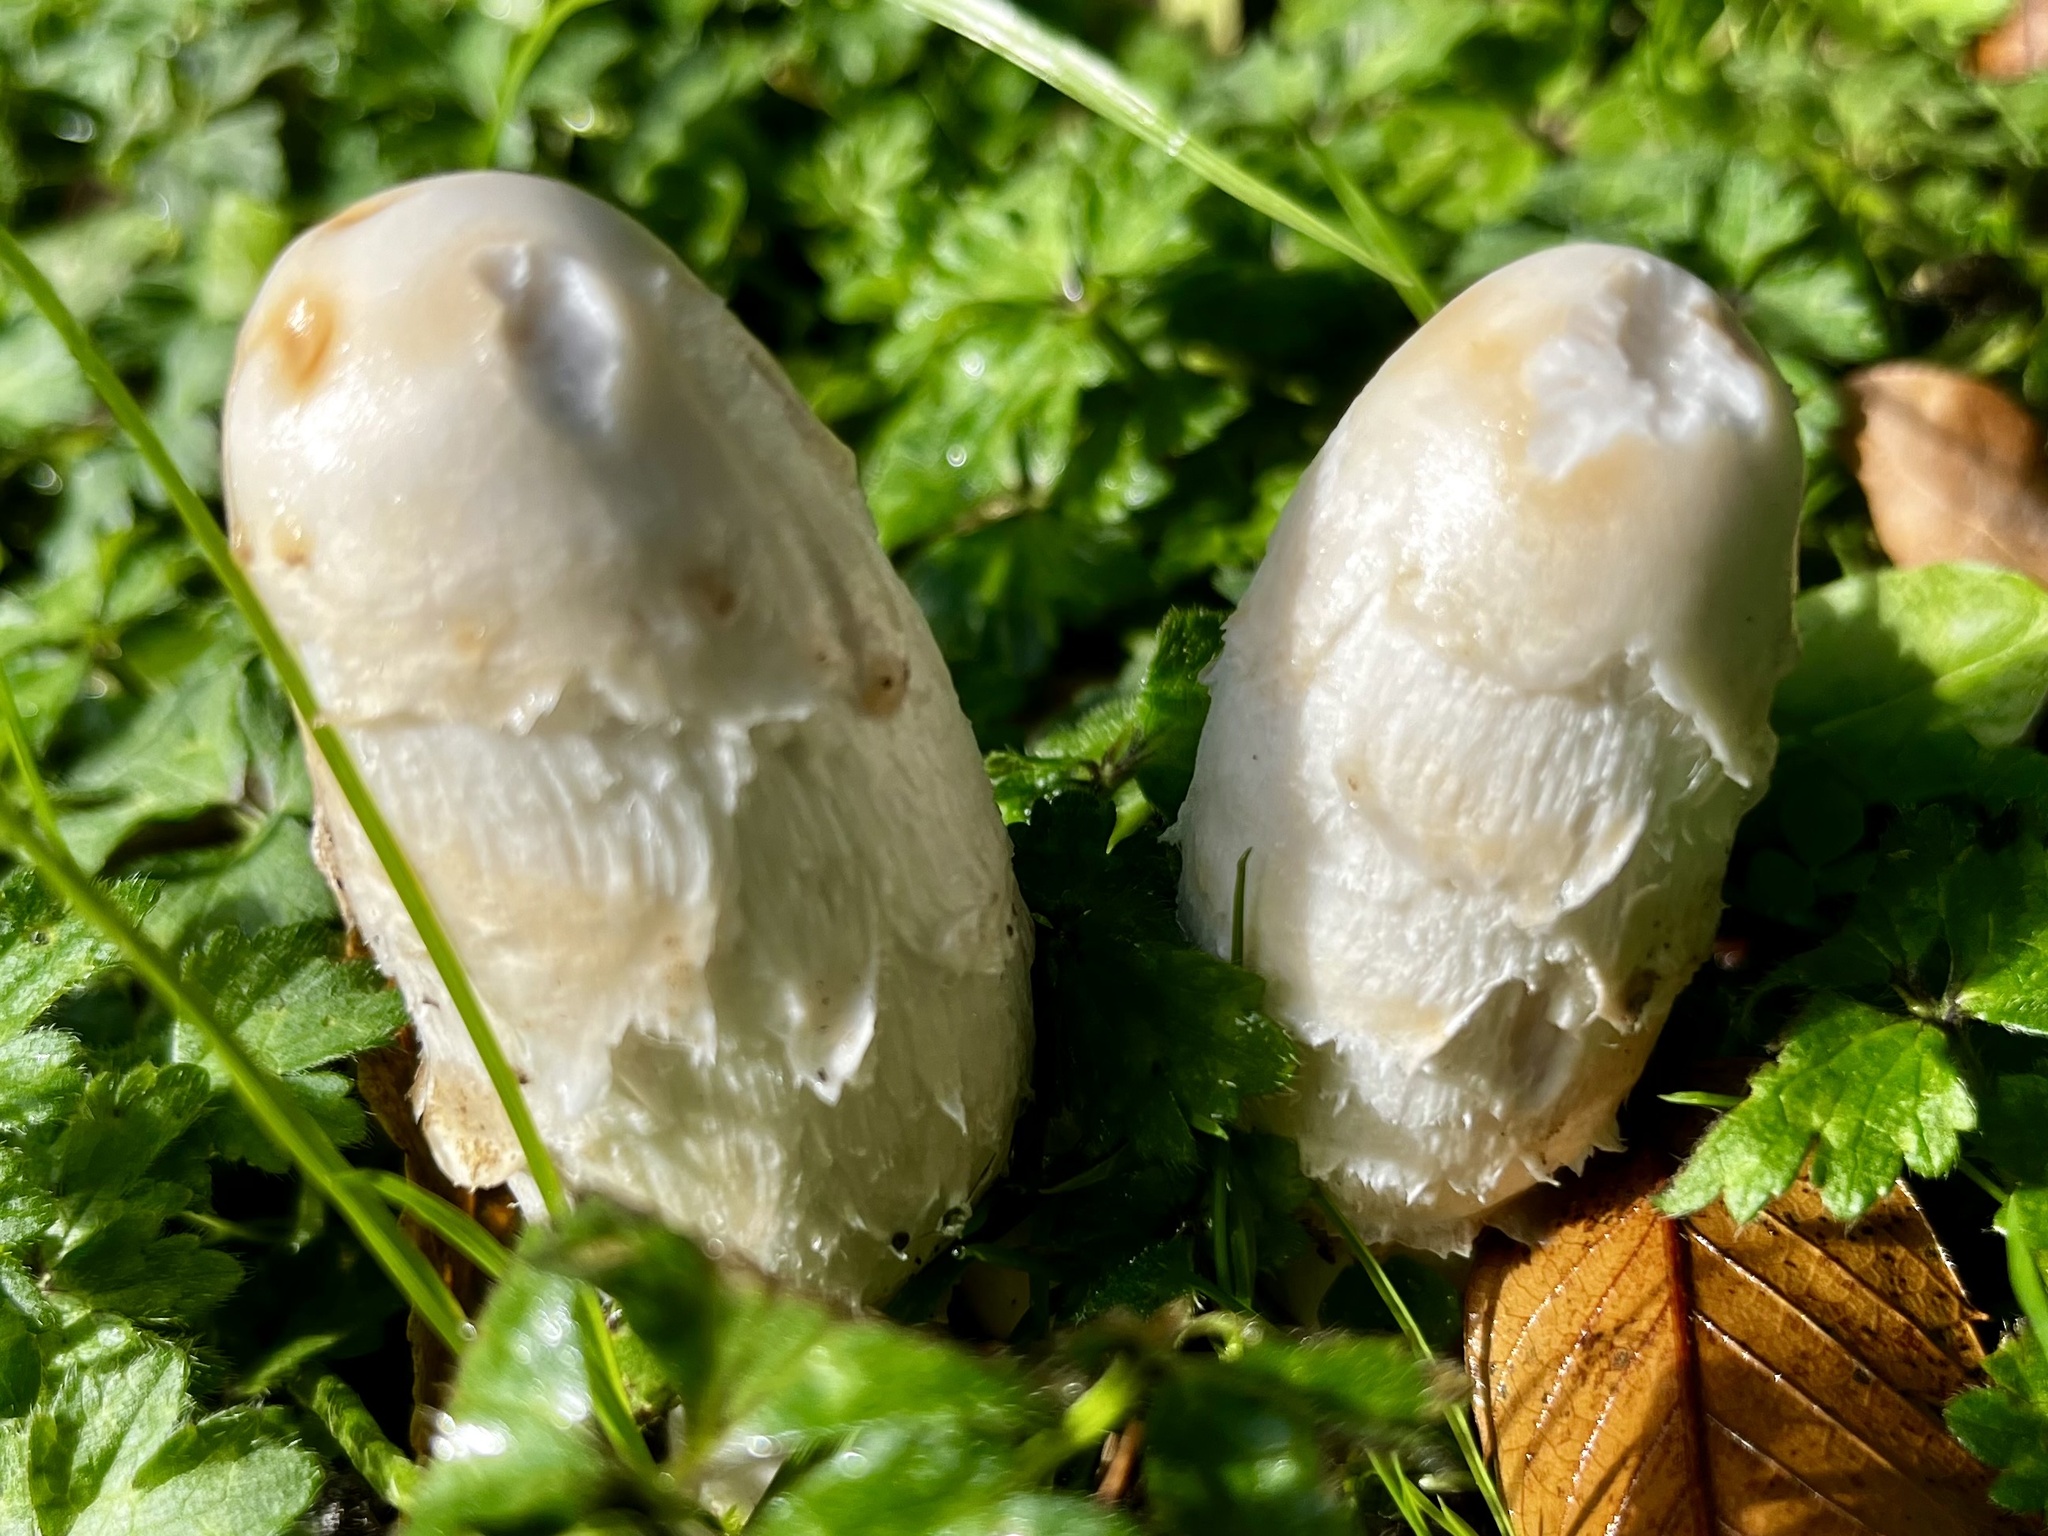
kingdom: Fungi
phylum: Basidiomycota
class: Agaricomycetes
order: Agaricales
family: Agaricaceae
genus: Coprinus
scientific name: Coprinus comatus
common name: Lawyer's wig
